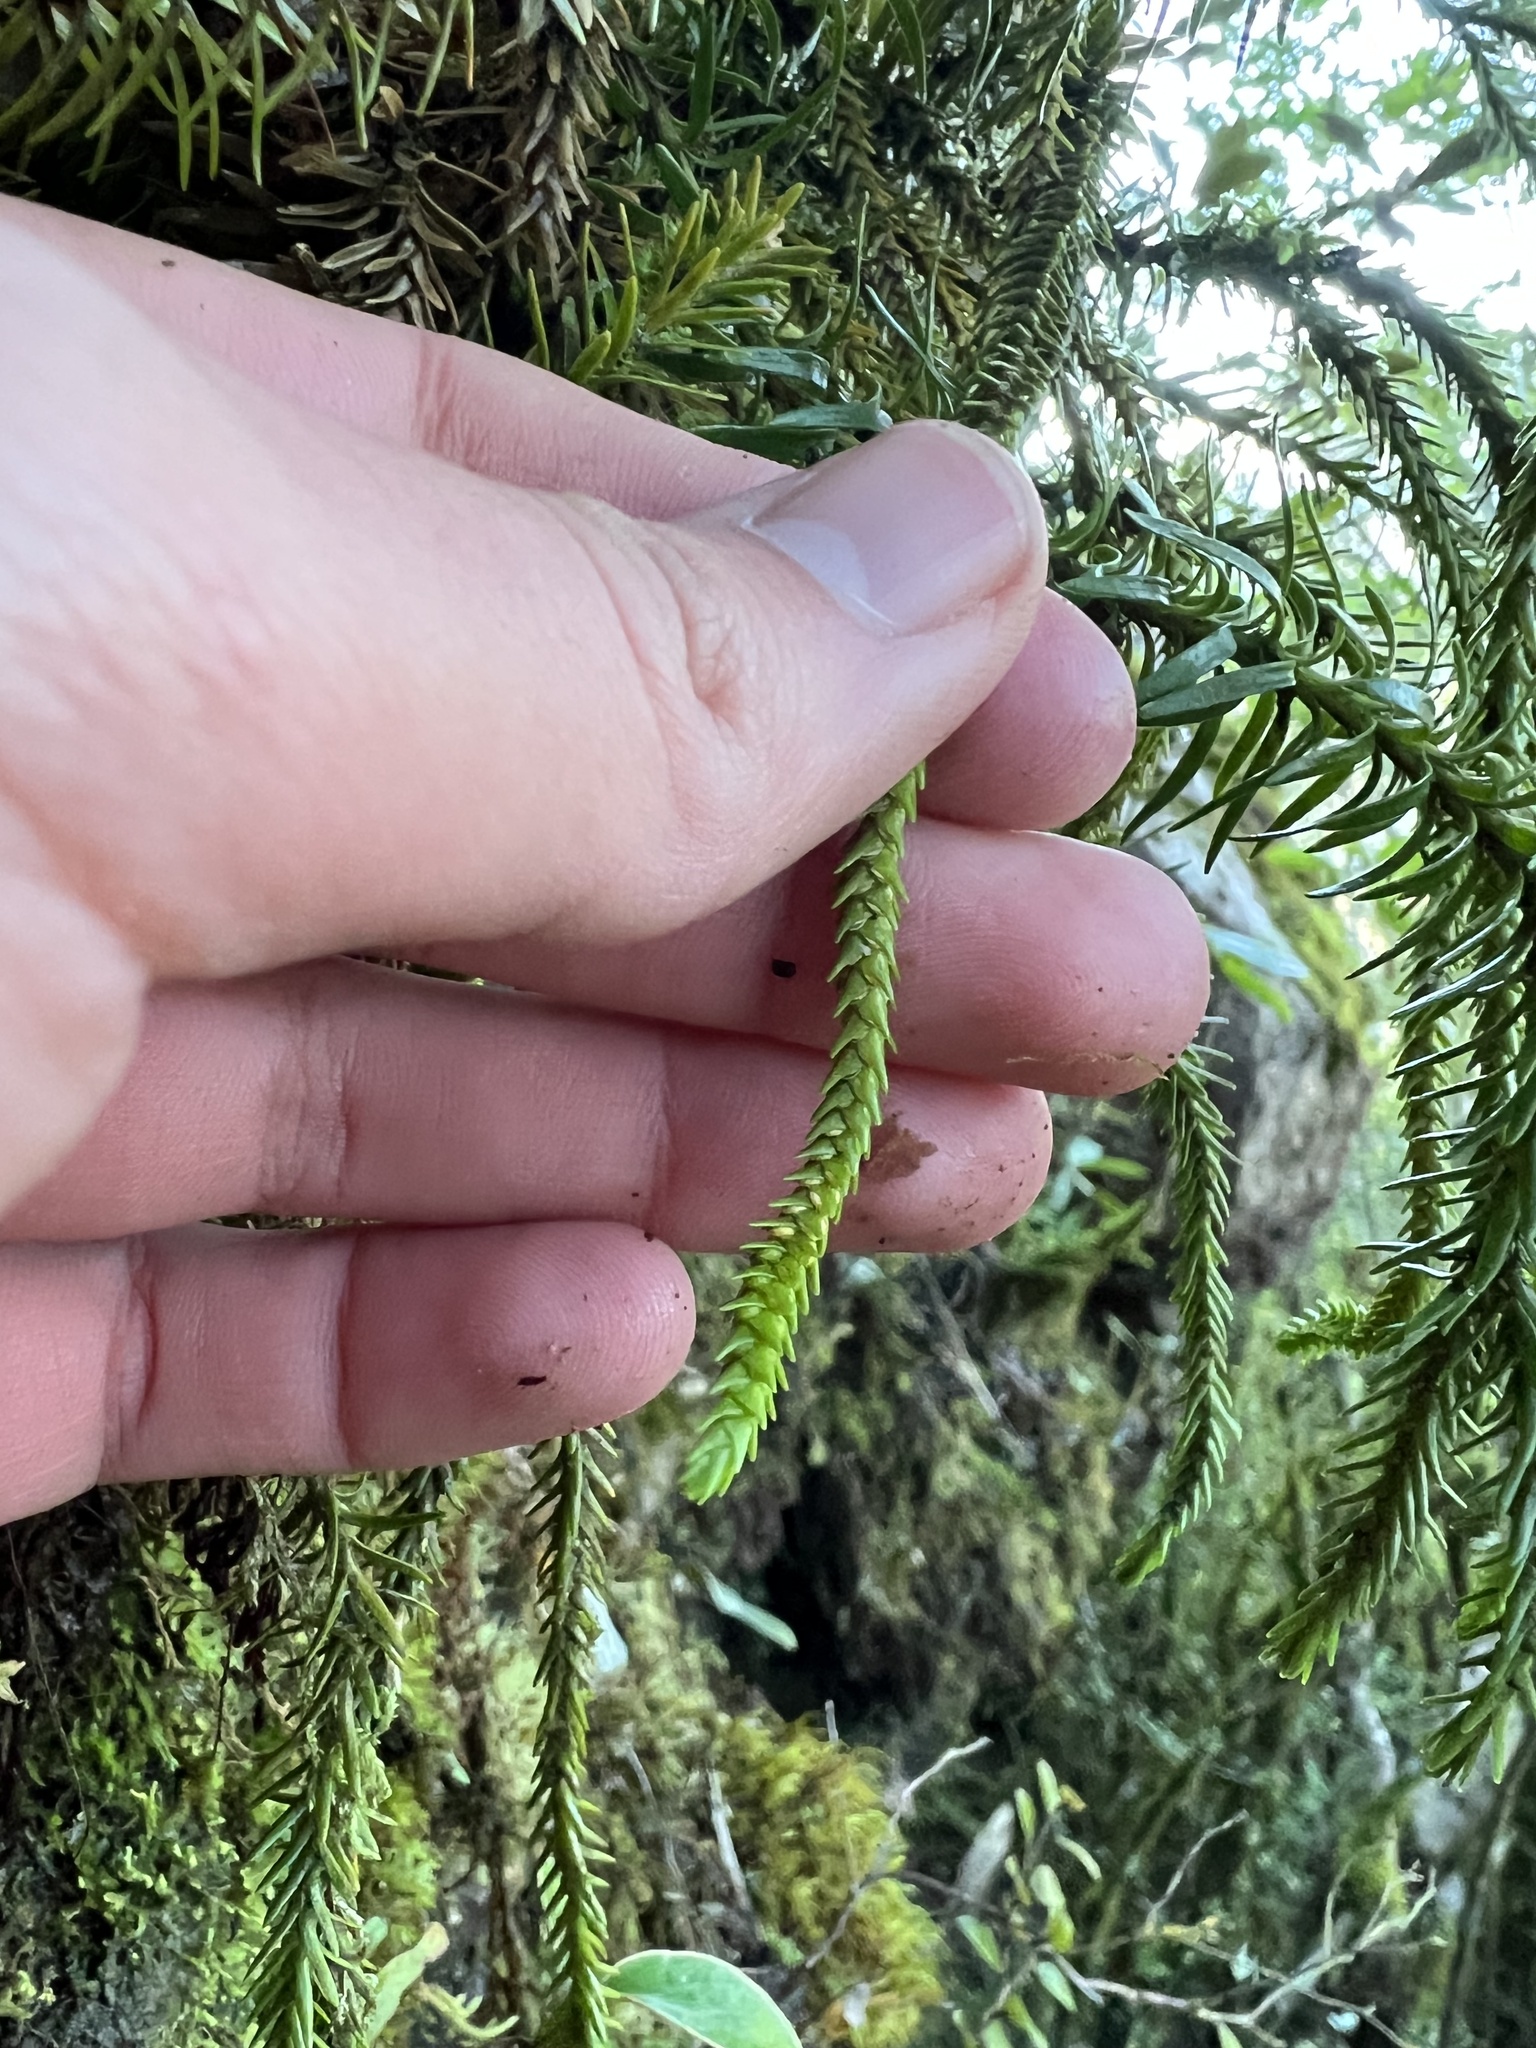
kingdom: Plantae
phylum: Tracheophyta
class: Lycopodiopsida
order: Lycopodiales
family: Lycopodiaceae
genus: Phlegmariurus
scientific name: Phlegmariurus varius
